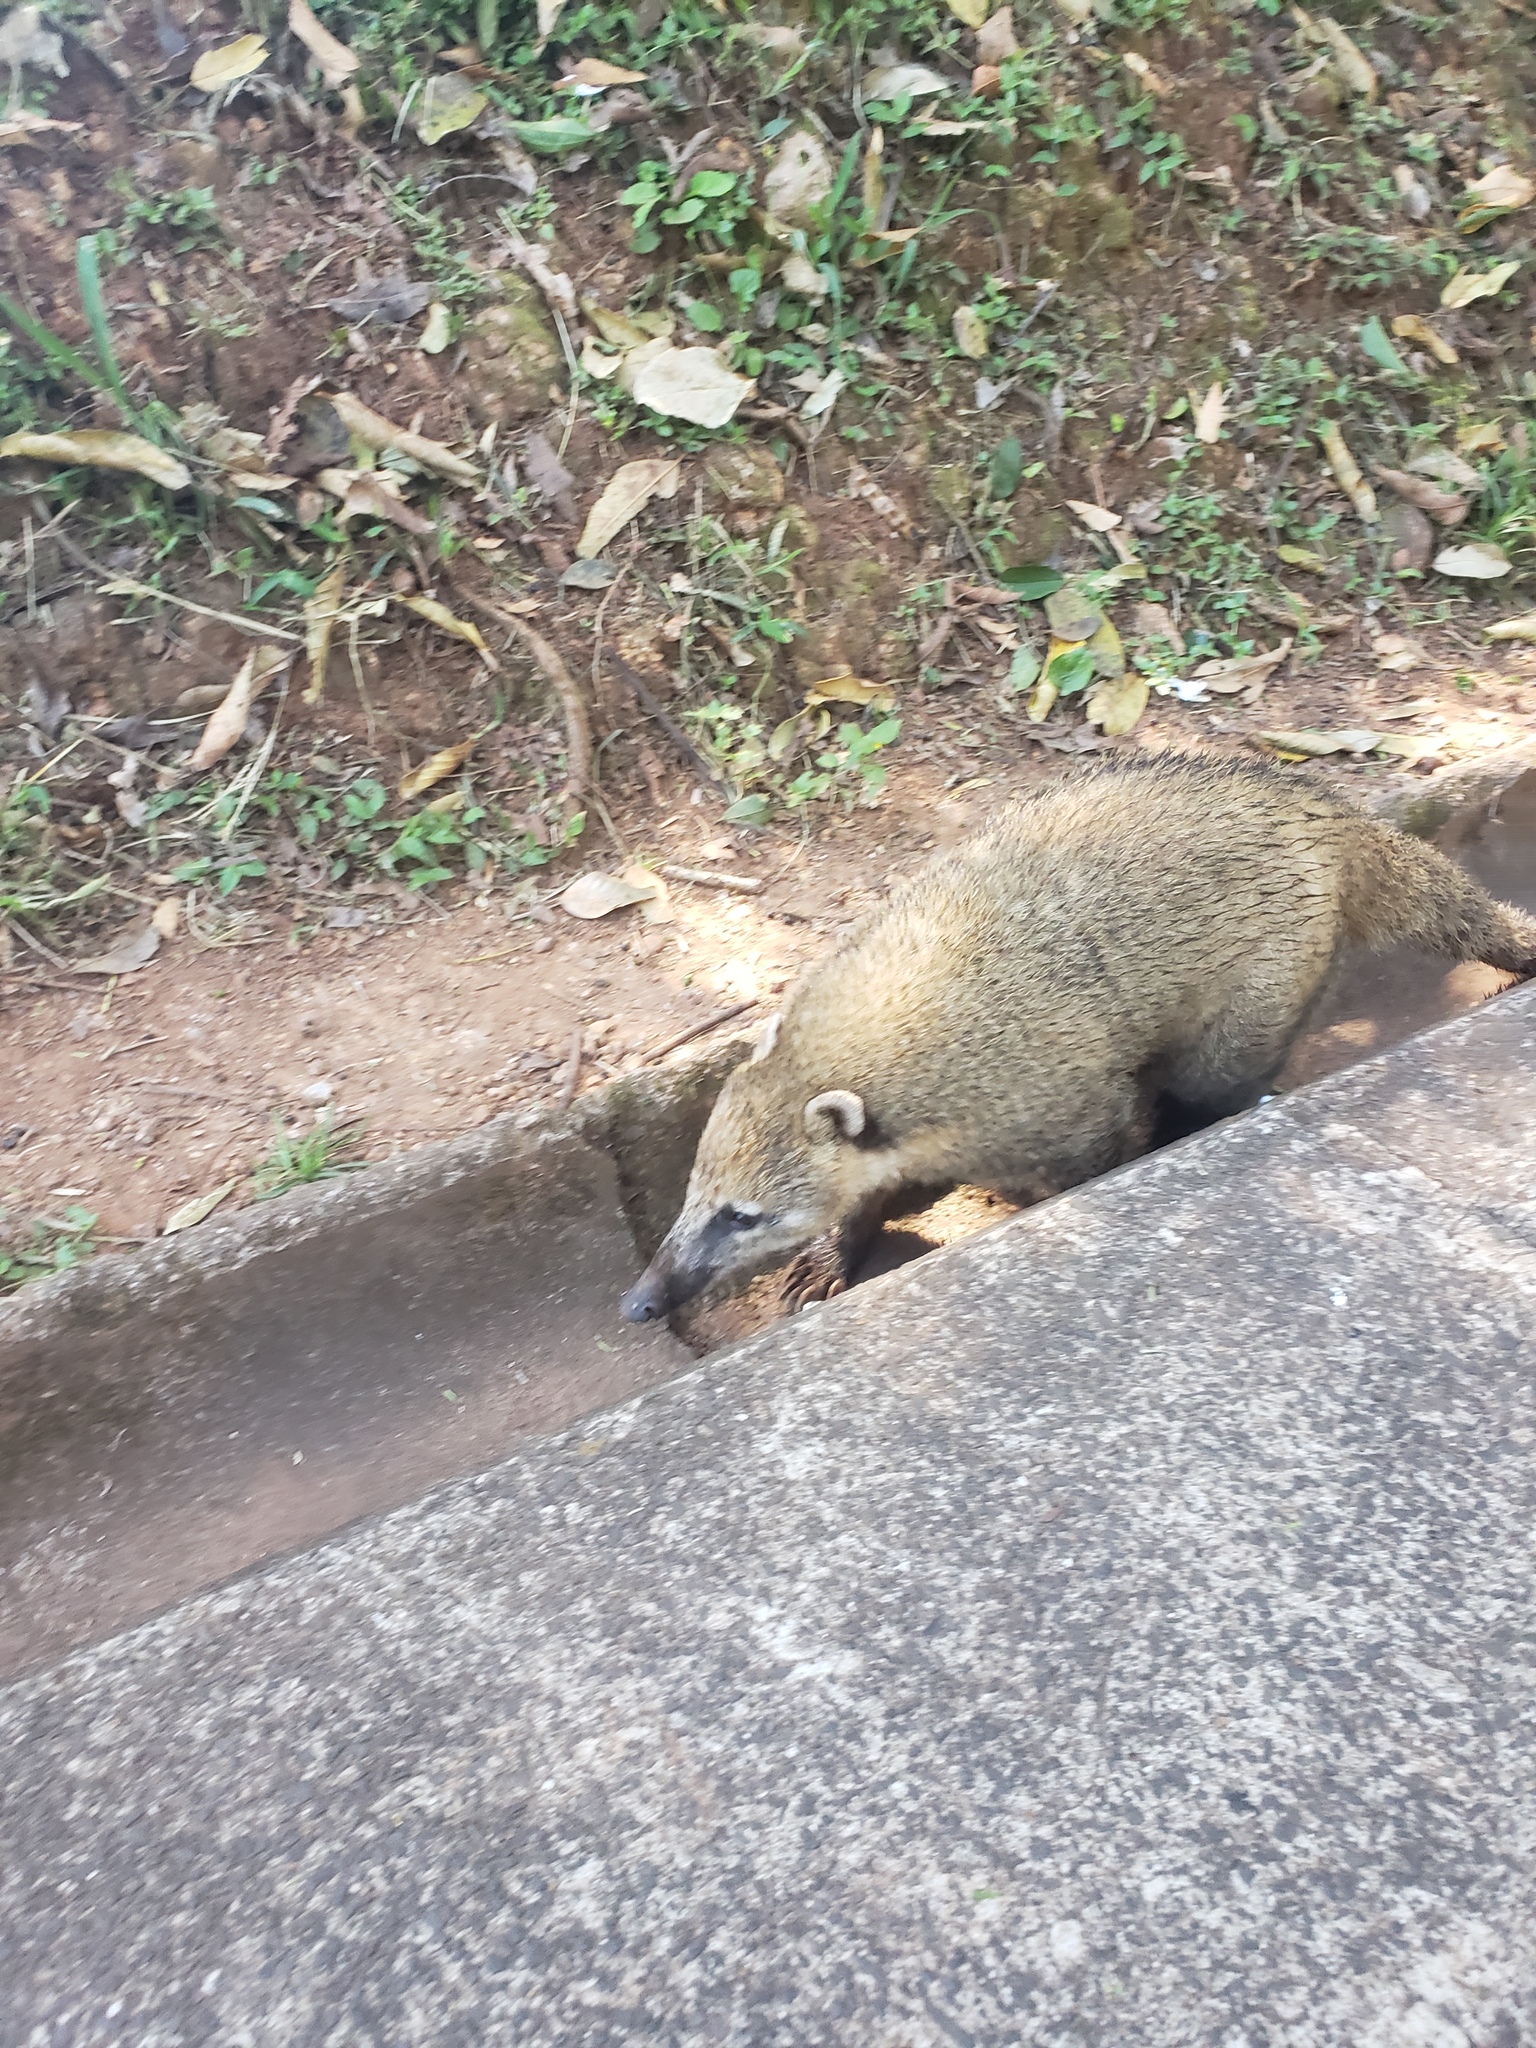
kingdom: Animalia
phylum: Chordata
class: Mammalia
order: Carnivora
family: Procyonidae
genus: Nasua
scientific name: Nasua nasua
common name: South american coati
